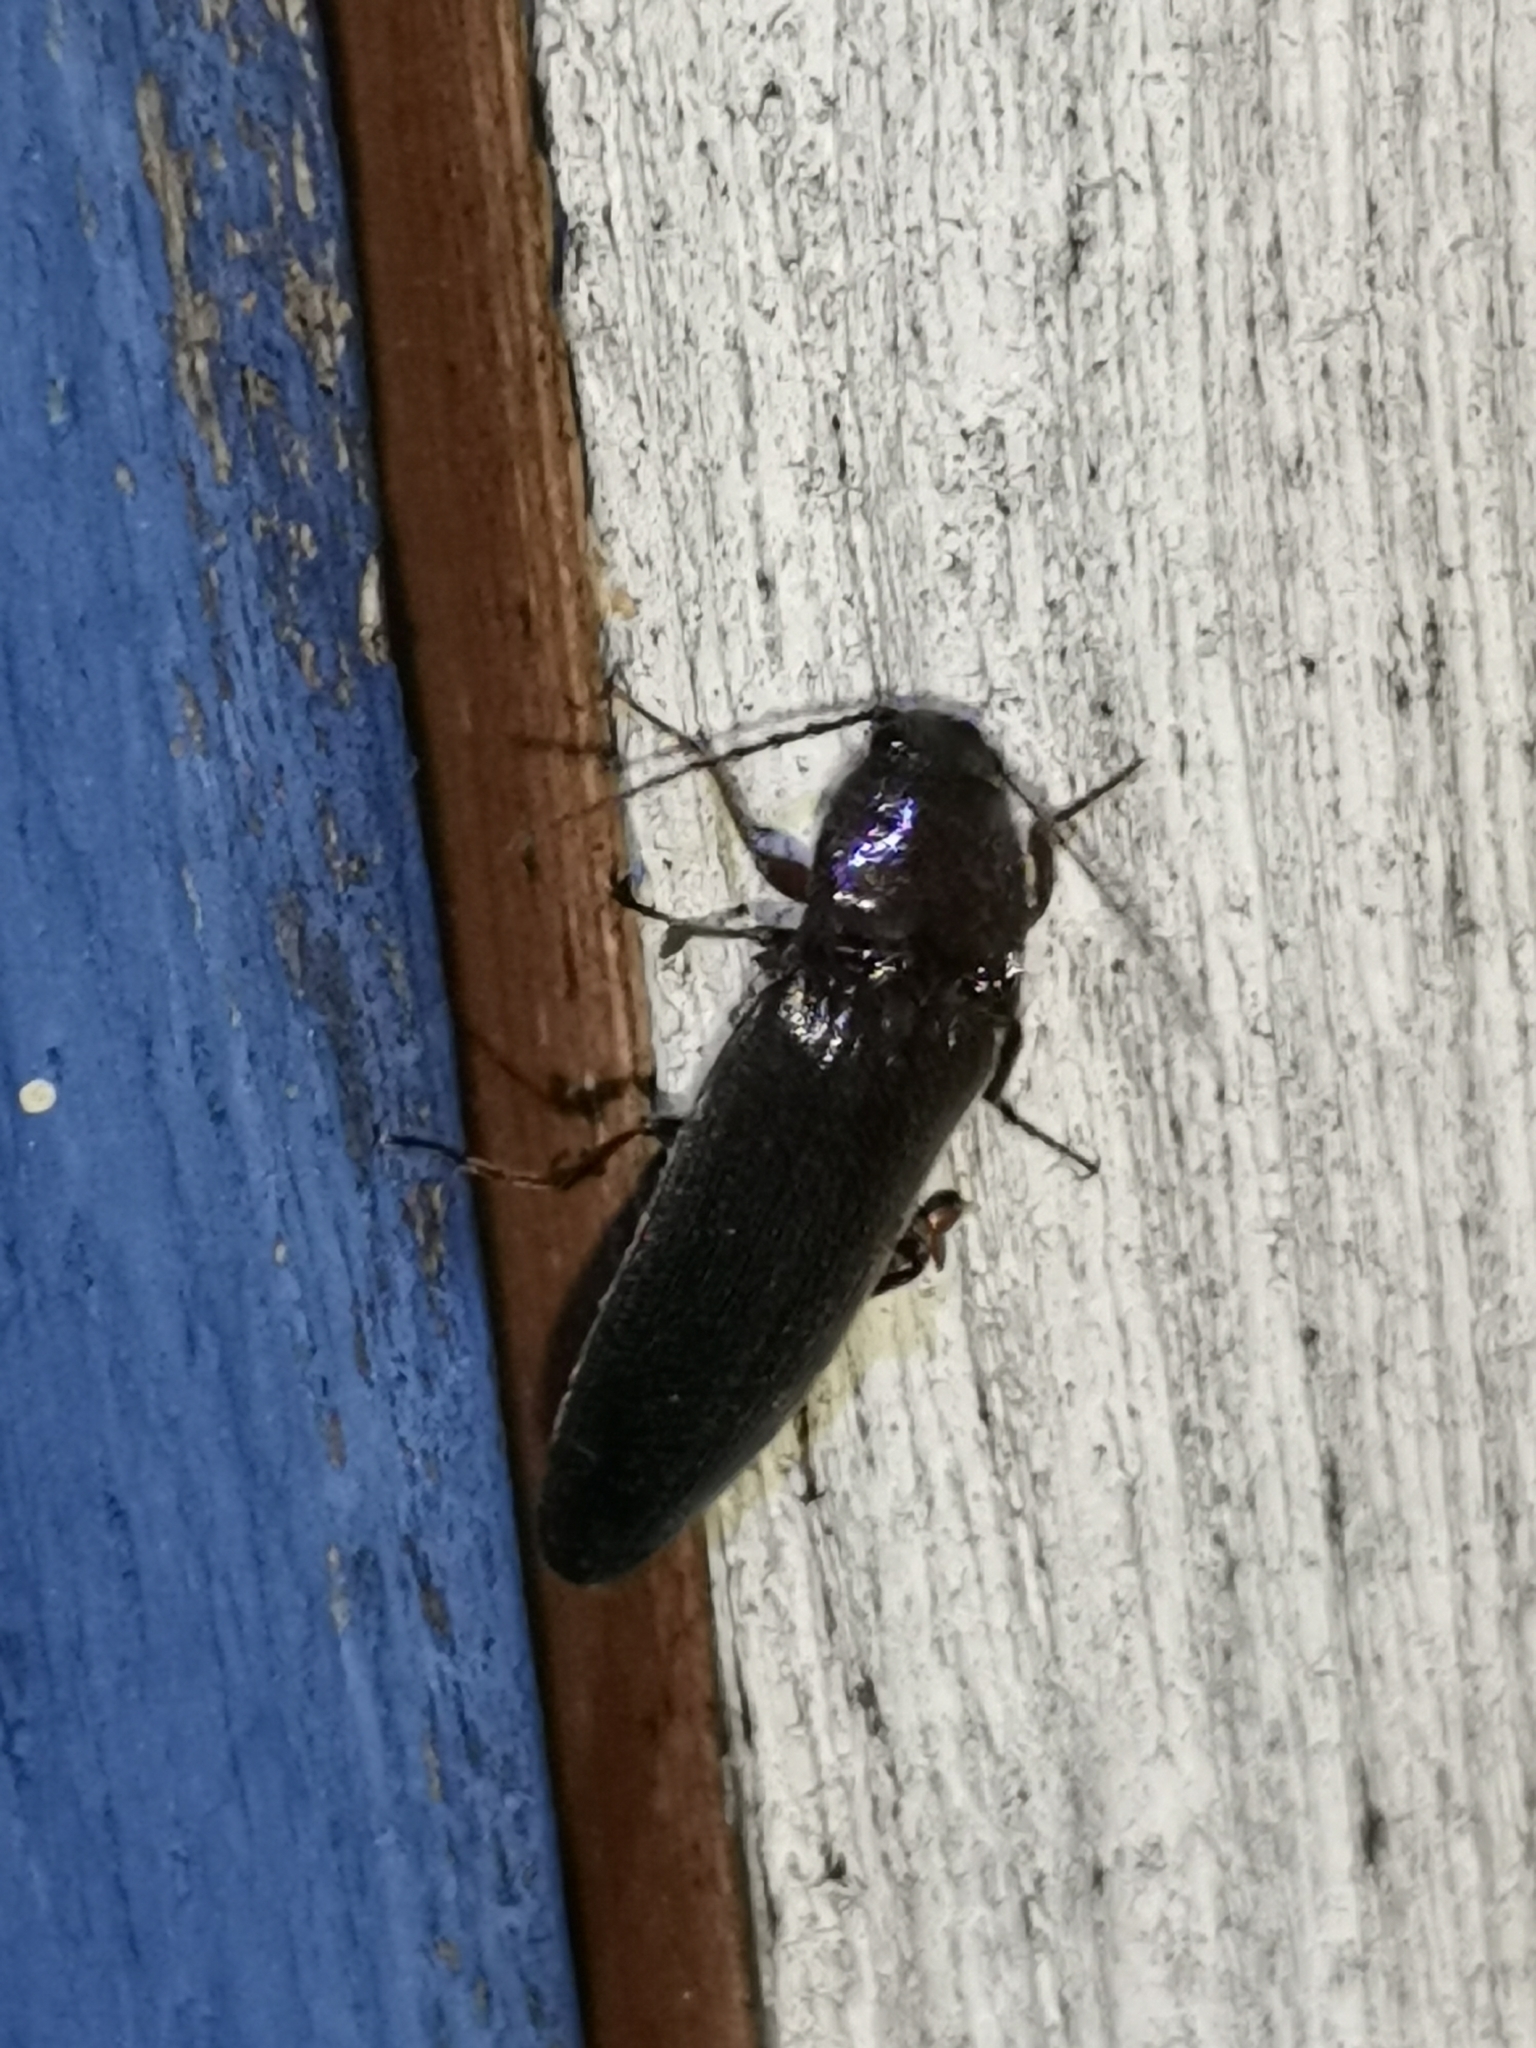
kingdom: Animalia
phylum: Arthropoda
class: Insecta
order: Coleoptera
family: Elateridae
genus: Melanotus
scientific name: Melanotus castanipes
